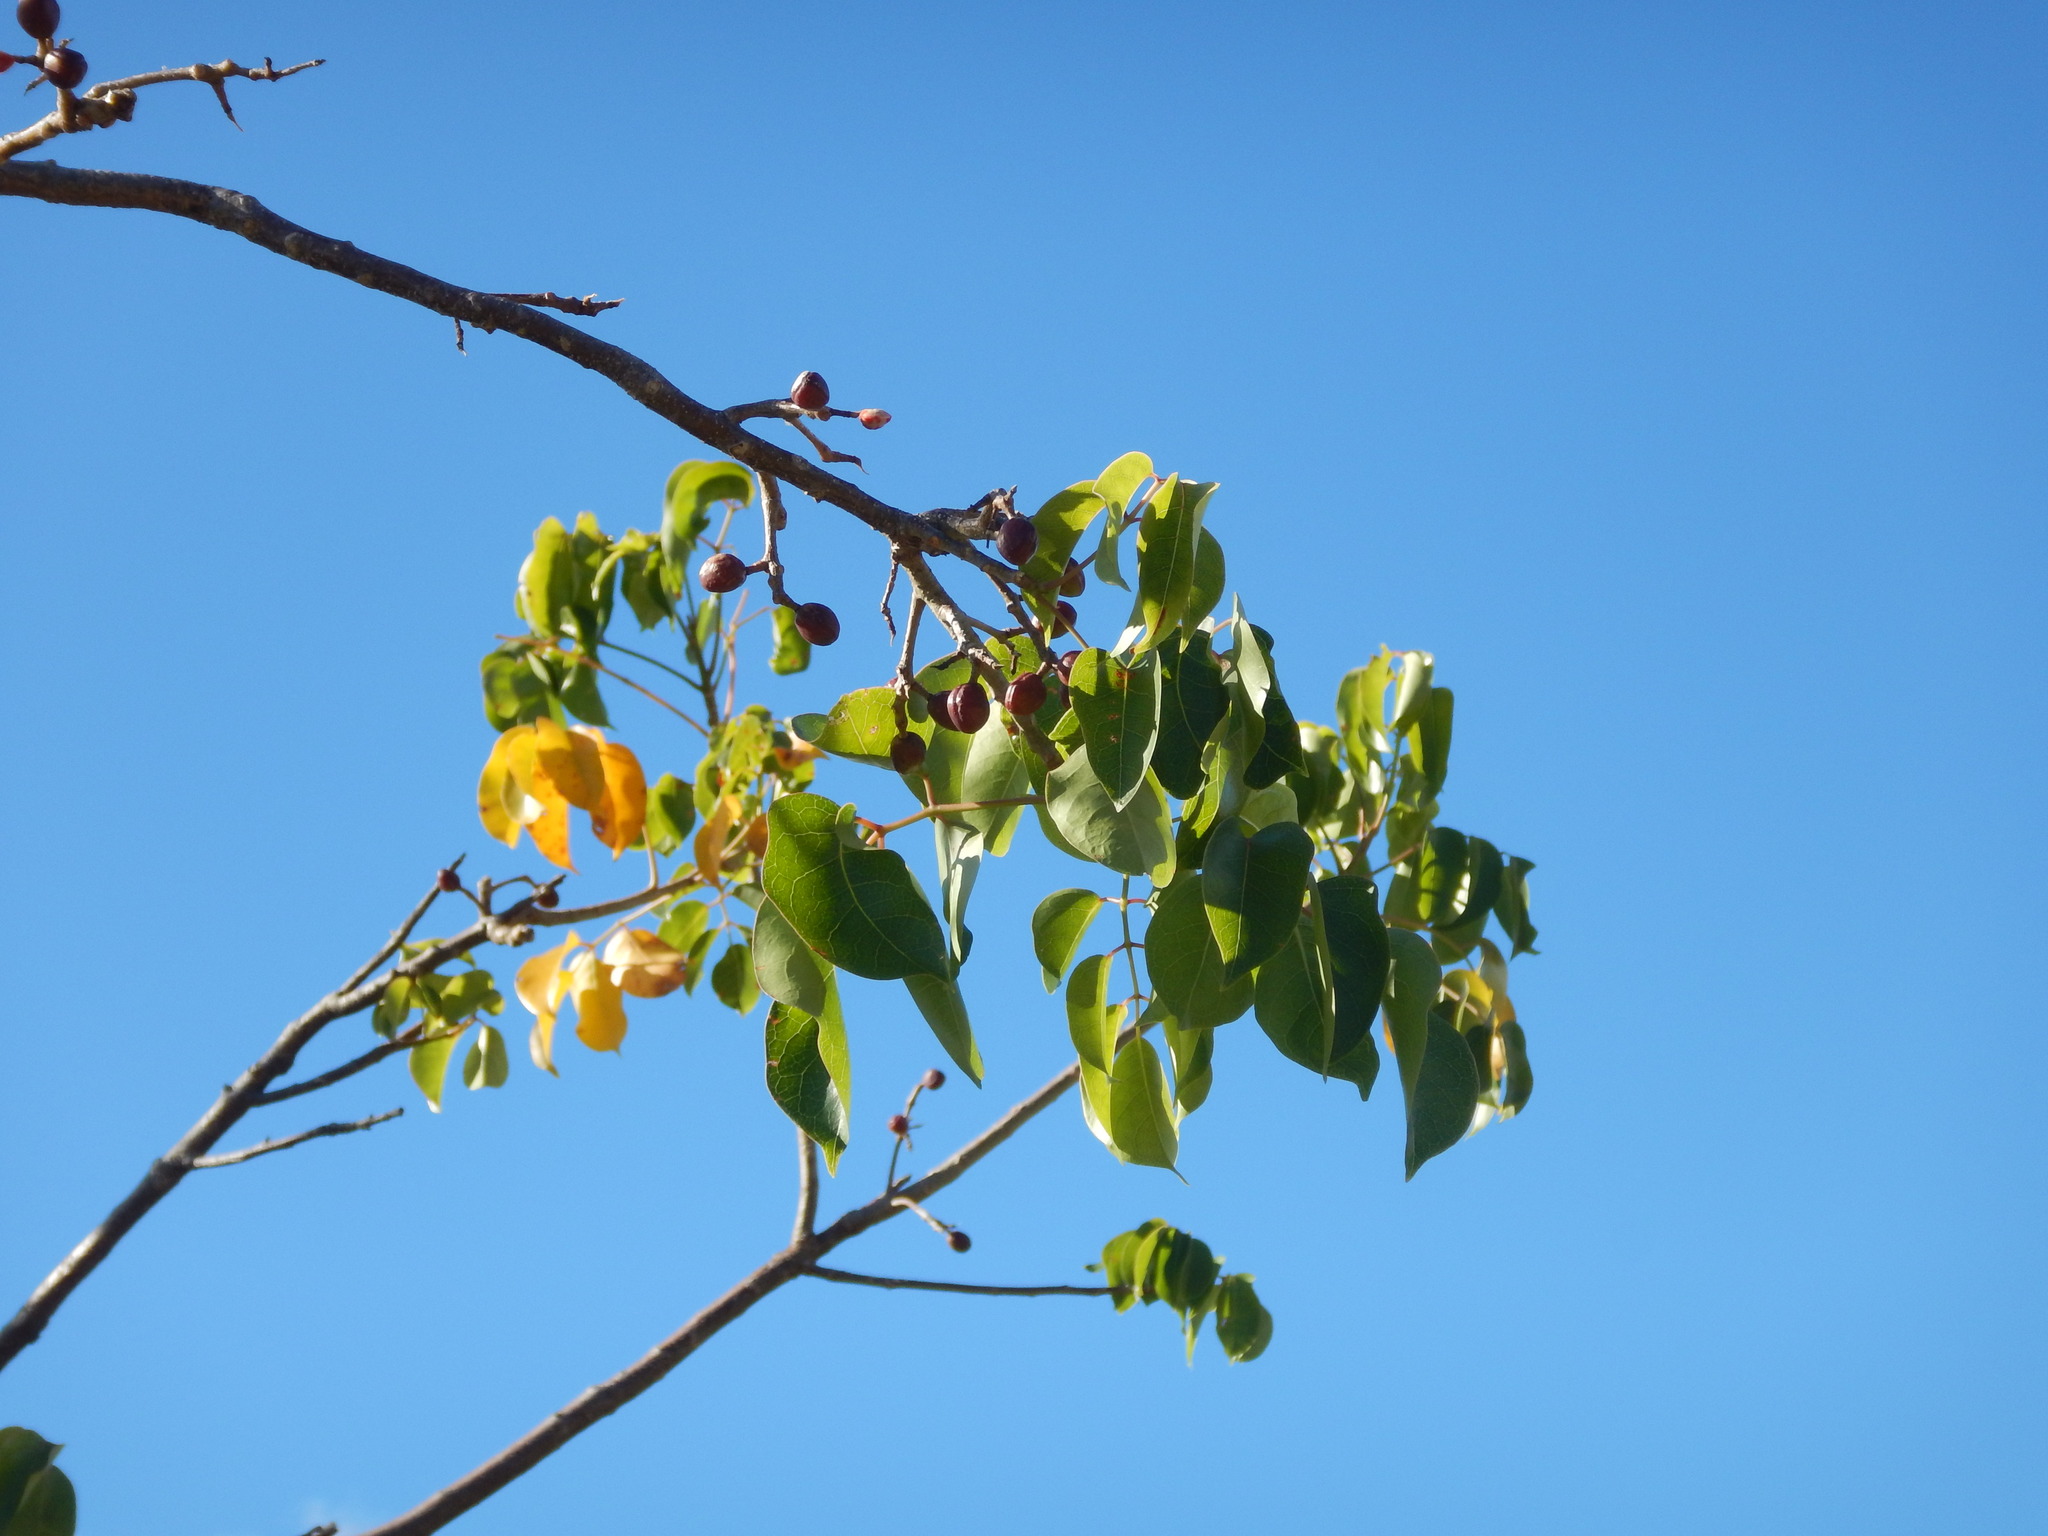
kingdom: Plantae
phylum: Tracheophyta
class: Magnoliopsida
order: Sapindales
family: Burseraceae
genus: Bursera
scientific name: Bursera simaruba
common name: Turpentine tree
